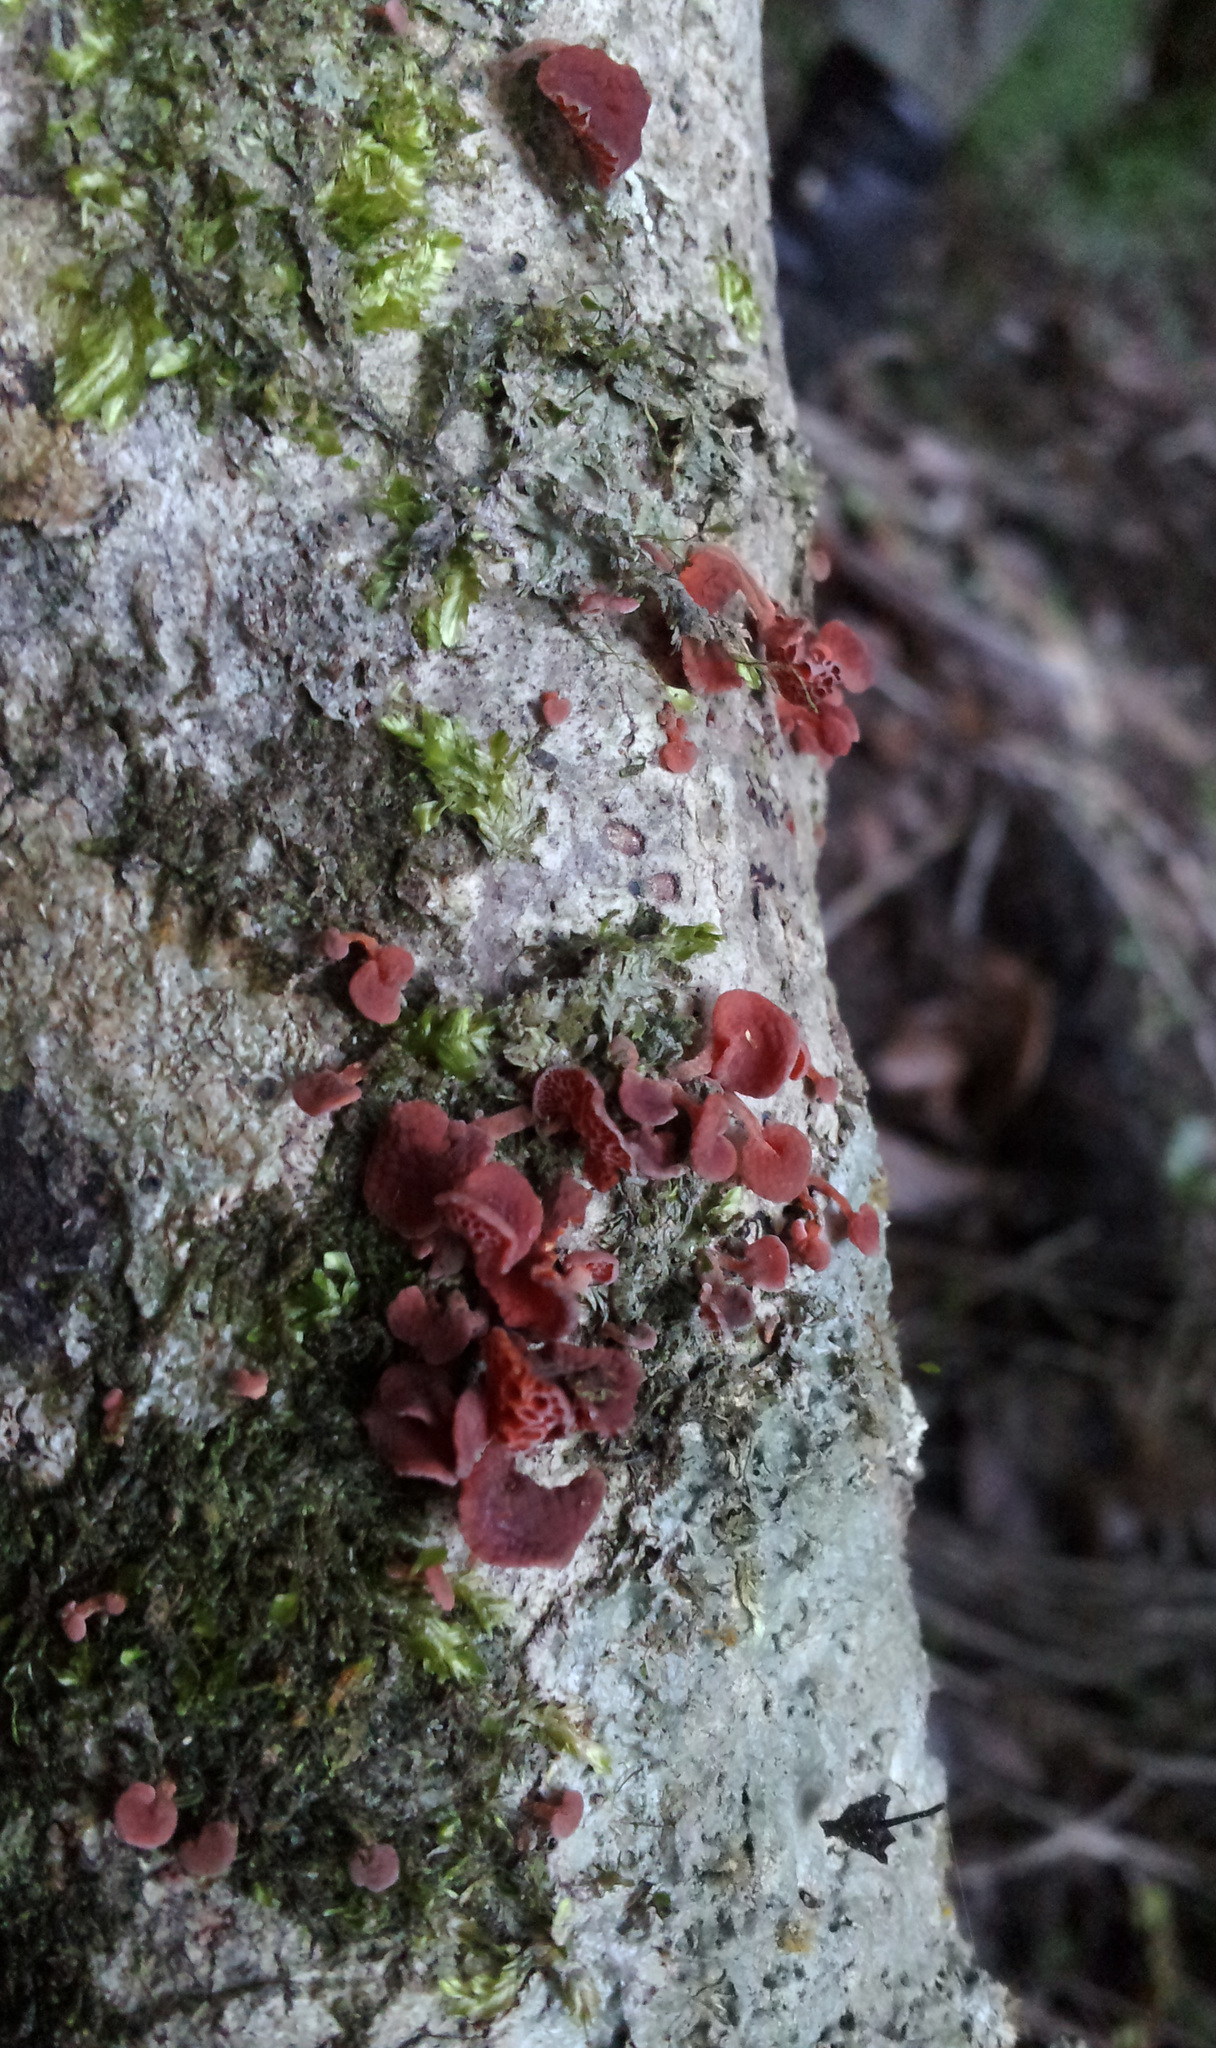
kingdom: Fungi
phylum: Basidiomycota
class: Agaricomycetes
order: Agaricales
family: Mycenaceae
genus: Favolaschia
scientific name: Favolaschia claudopus
